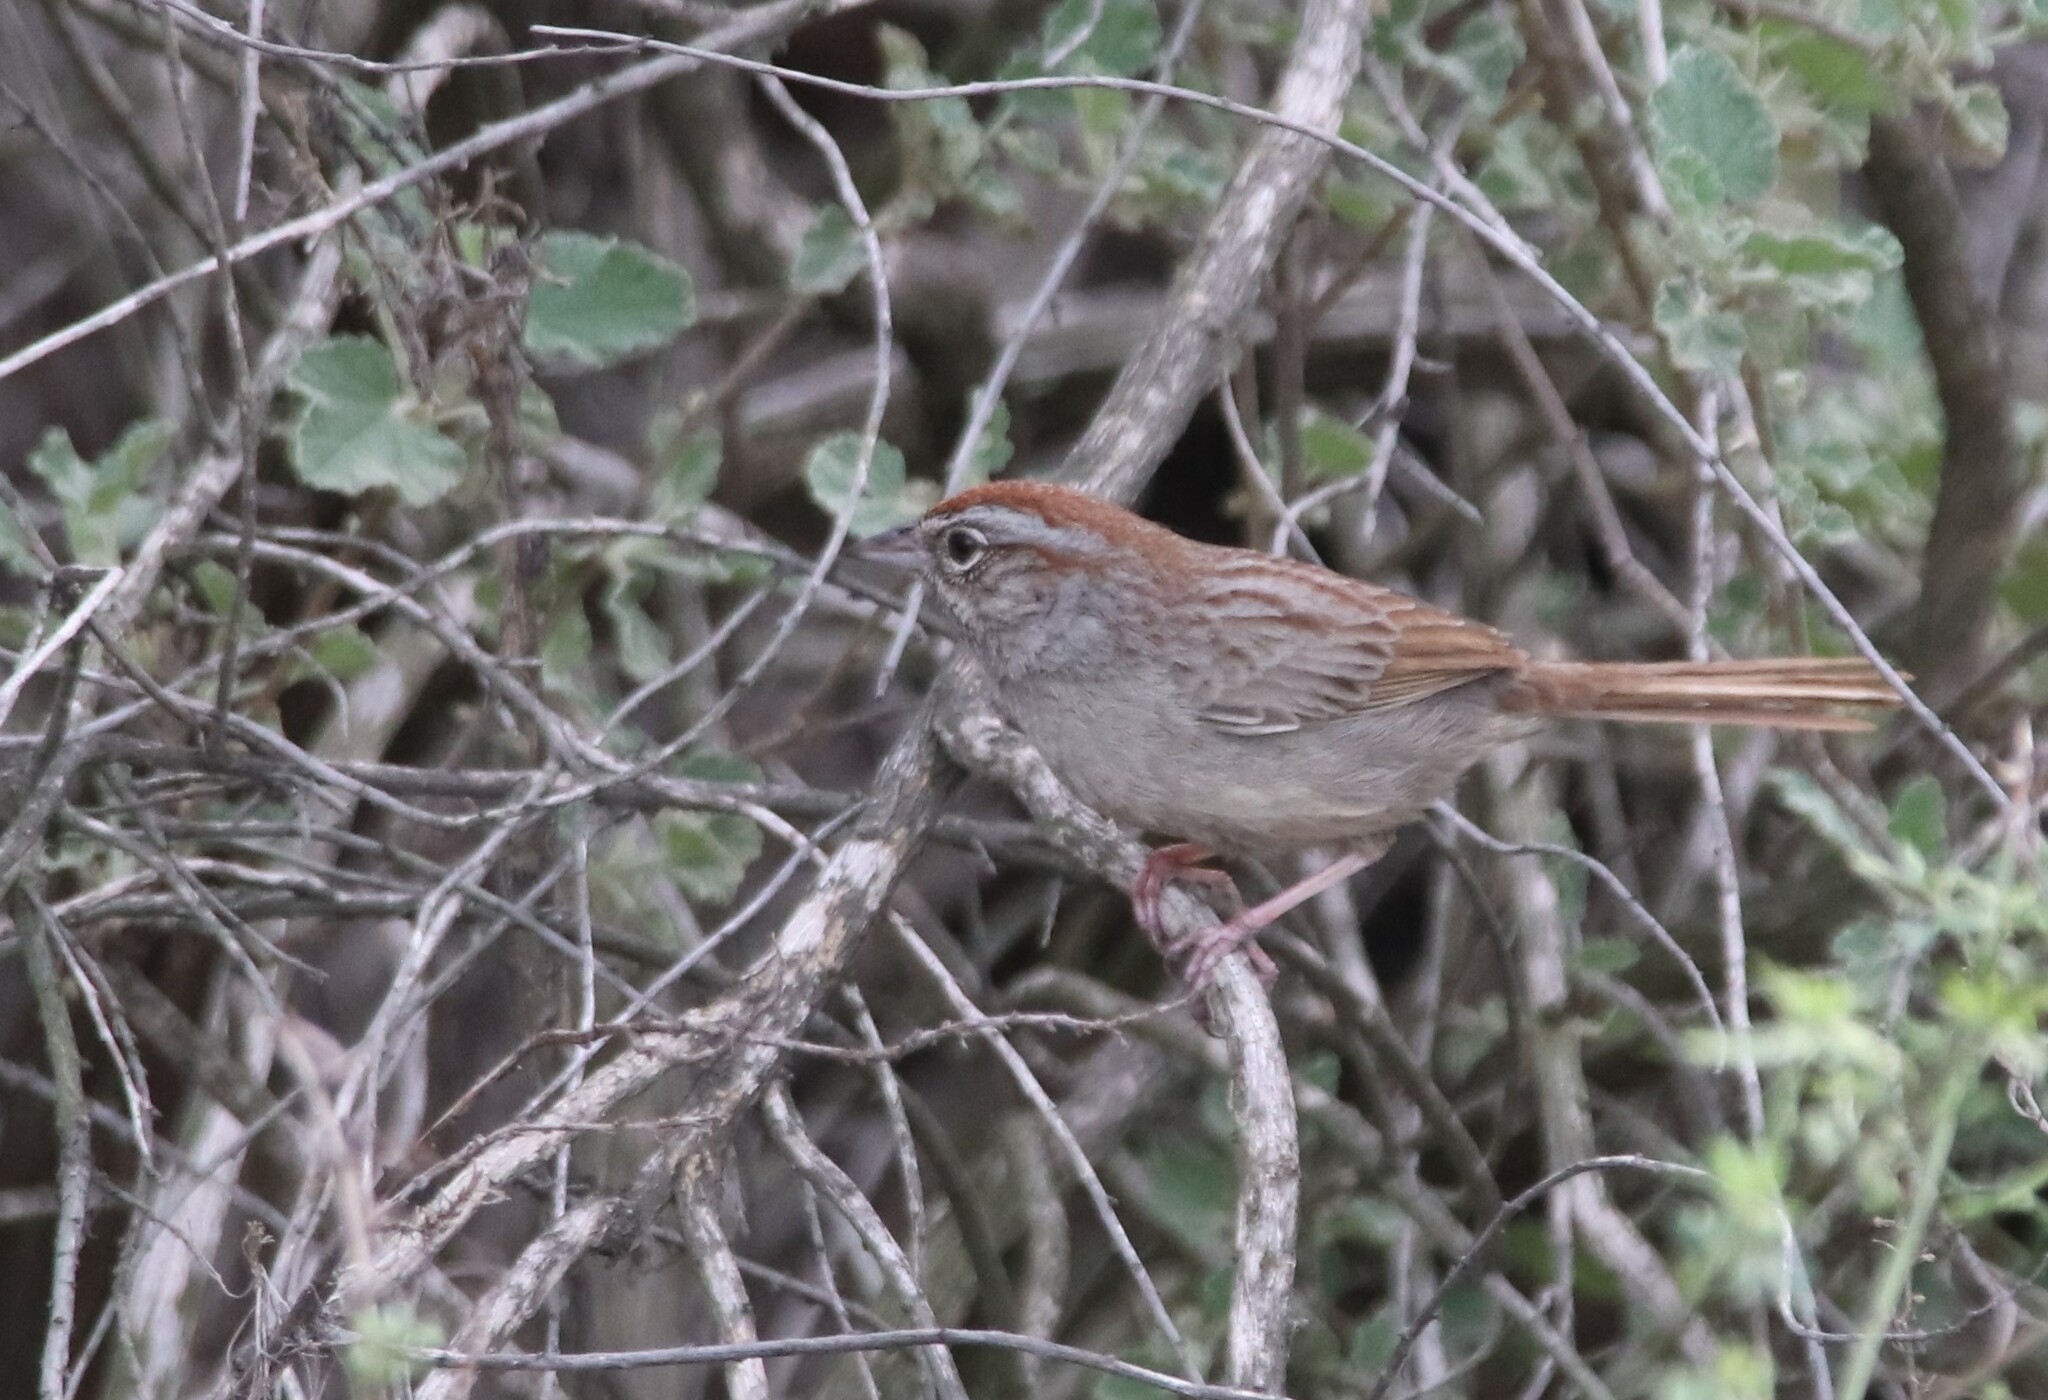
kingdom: Animalia
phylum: Chordata
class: Aves
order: Passeriformes
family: Passerellidae
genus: Aimophila
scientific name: Aimophila ruficeps
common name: Rufous-crowned sparrow
